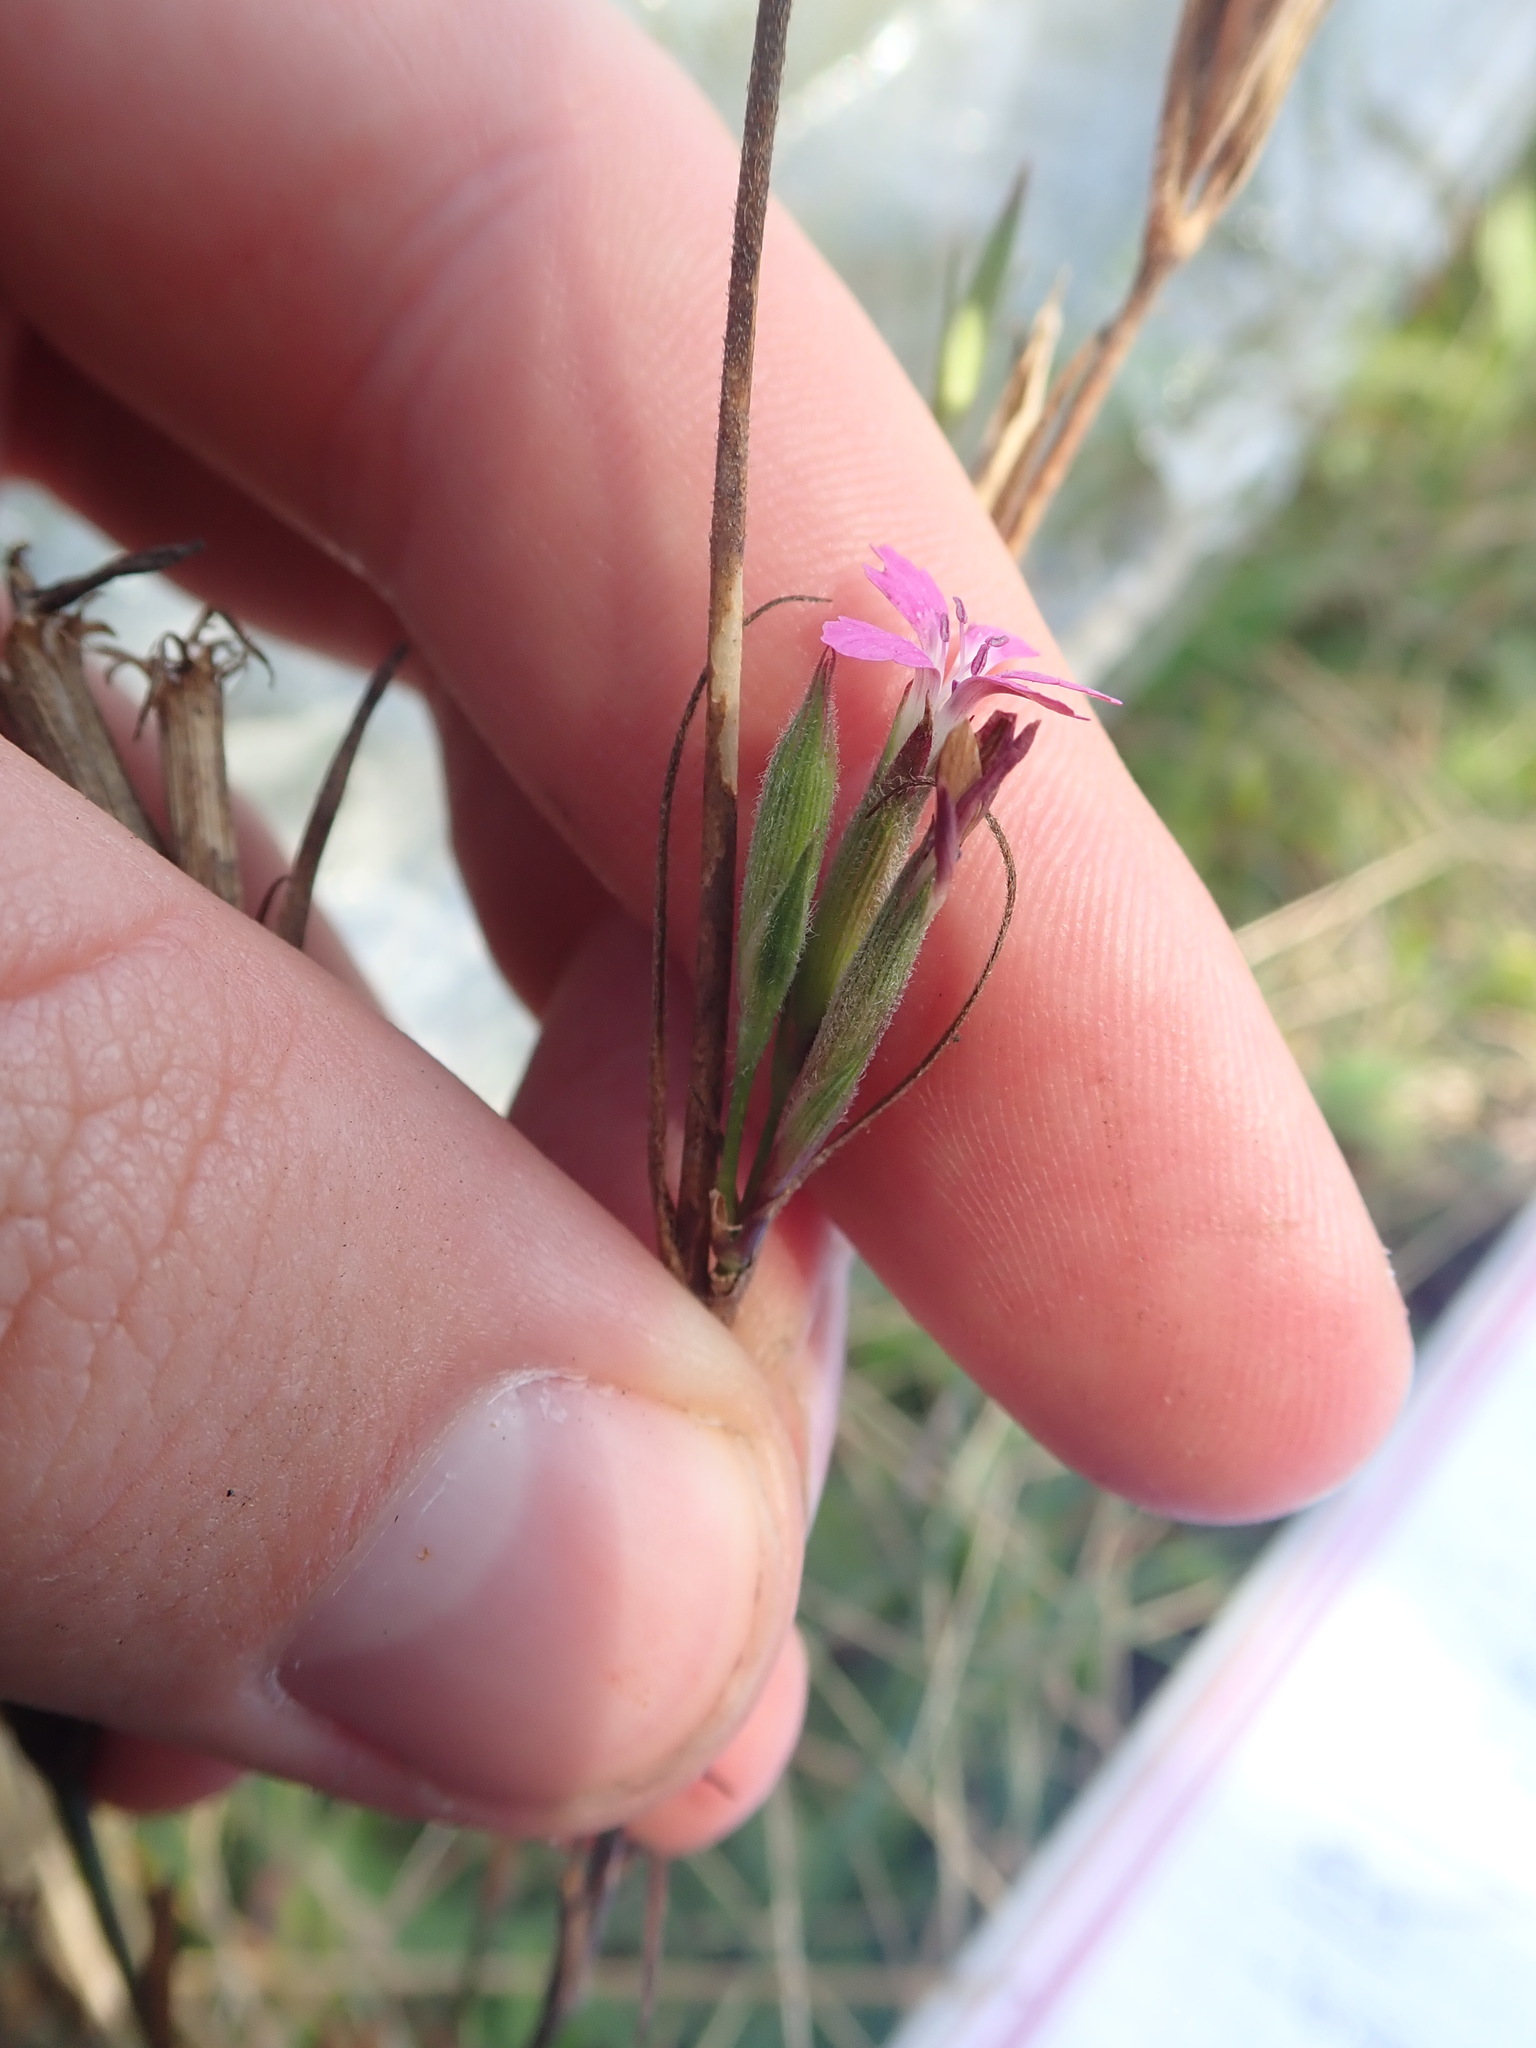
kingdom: Plantae
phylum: Tracheophyta
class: Magnoliopsida
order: Caryophyllales
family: Caryophyllaceae
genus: Dianthus
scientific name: Dianthus carthusianorum
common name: Carthusian pink
